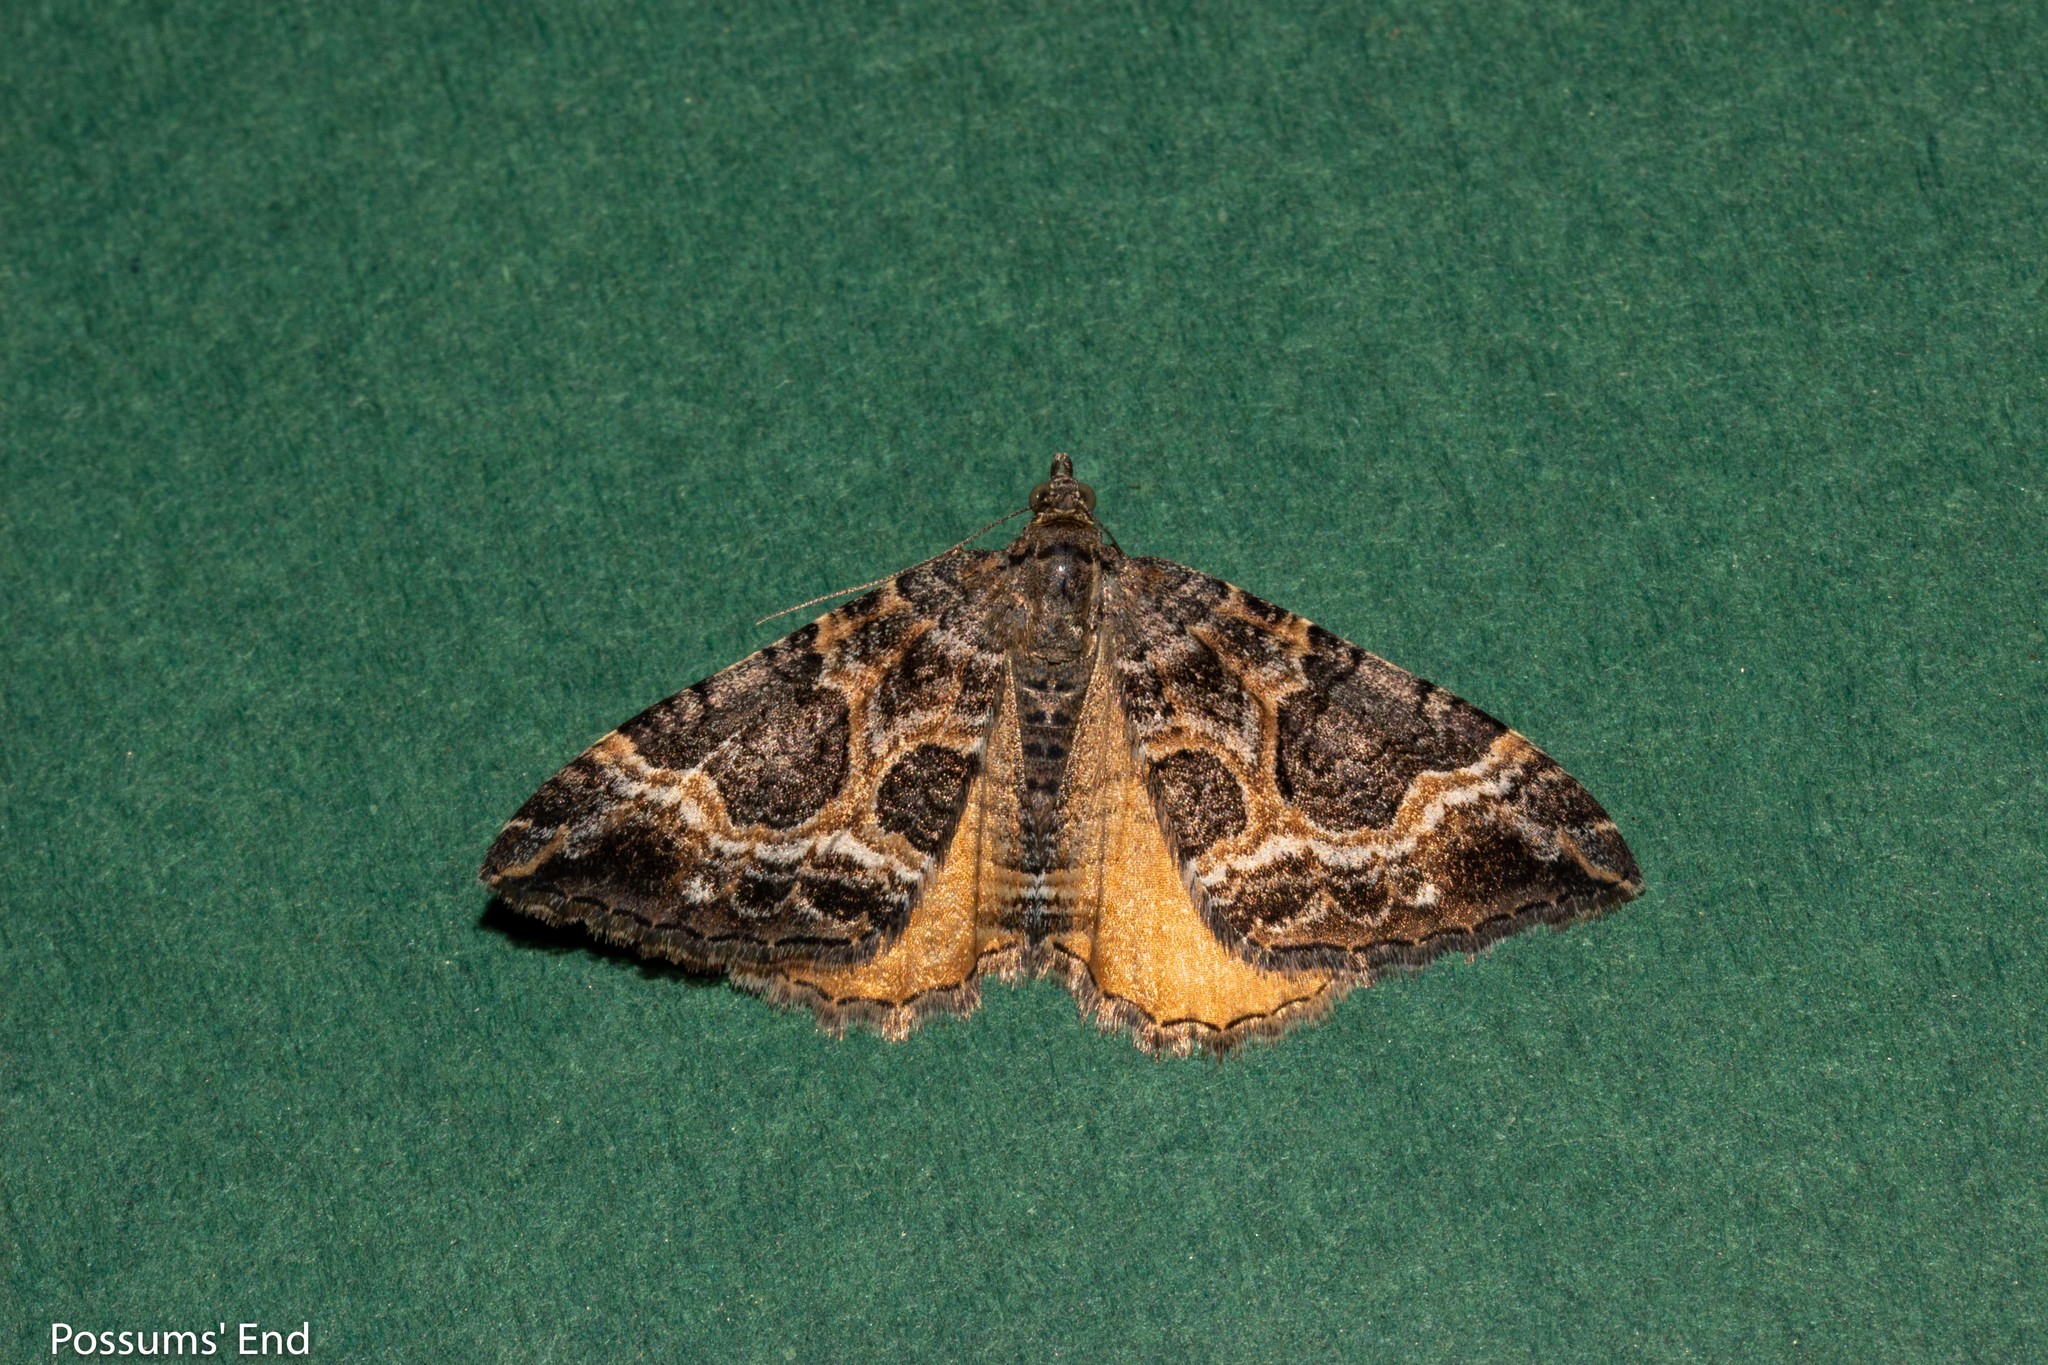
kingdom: Animalia
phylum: Arthropoda
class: Insecta
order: Lepidoptera
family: Geometridae
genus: Hydriomena
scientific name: Hydriomena deltoidata
